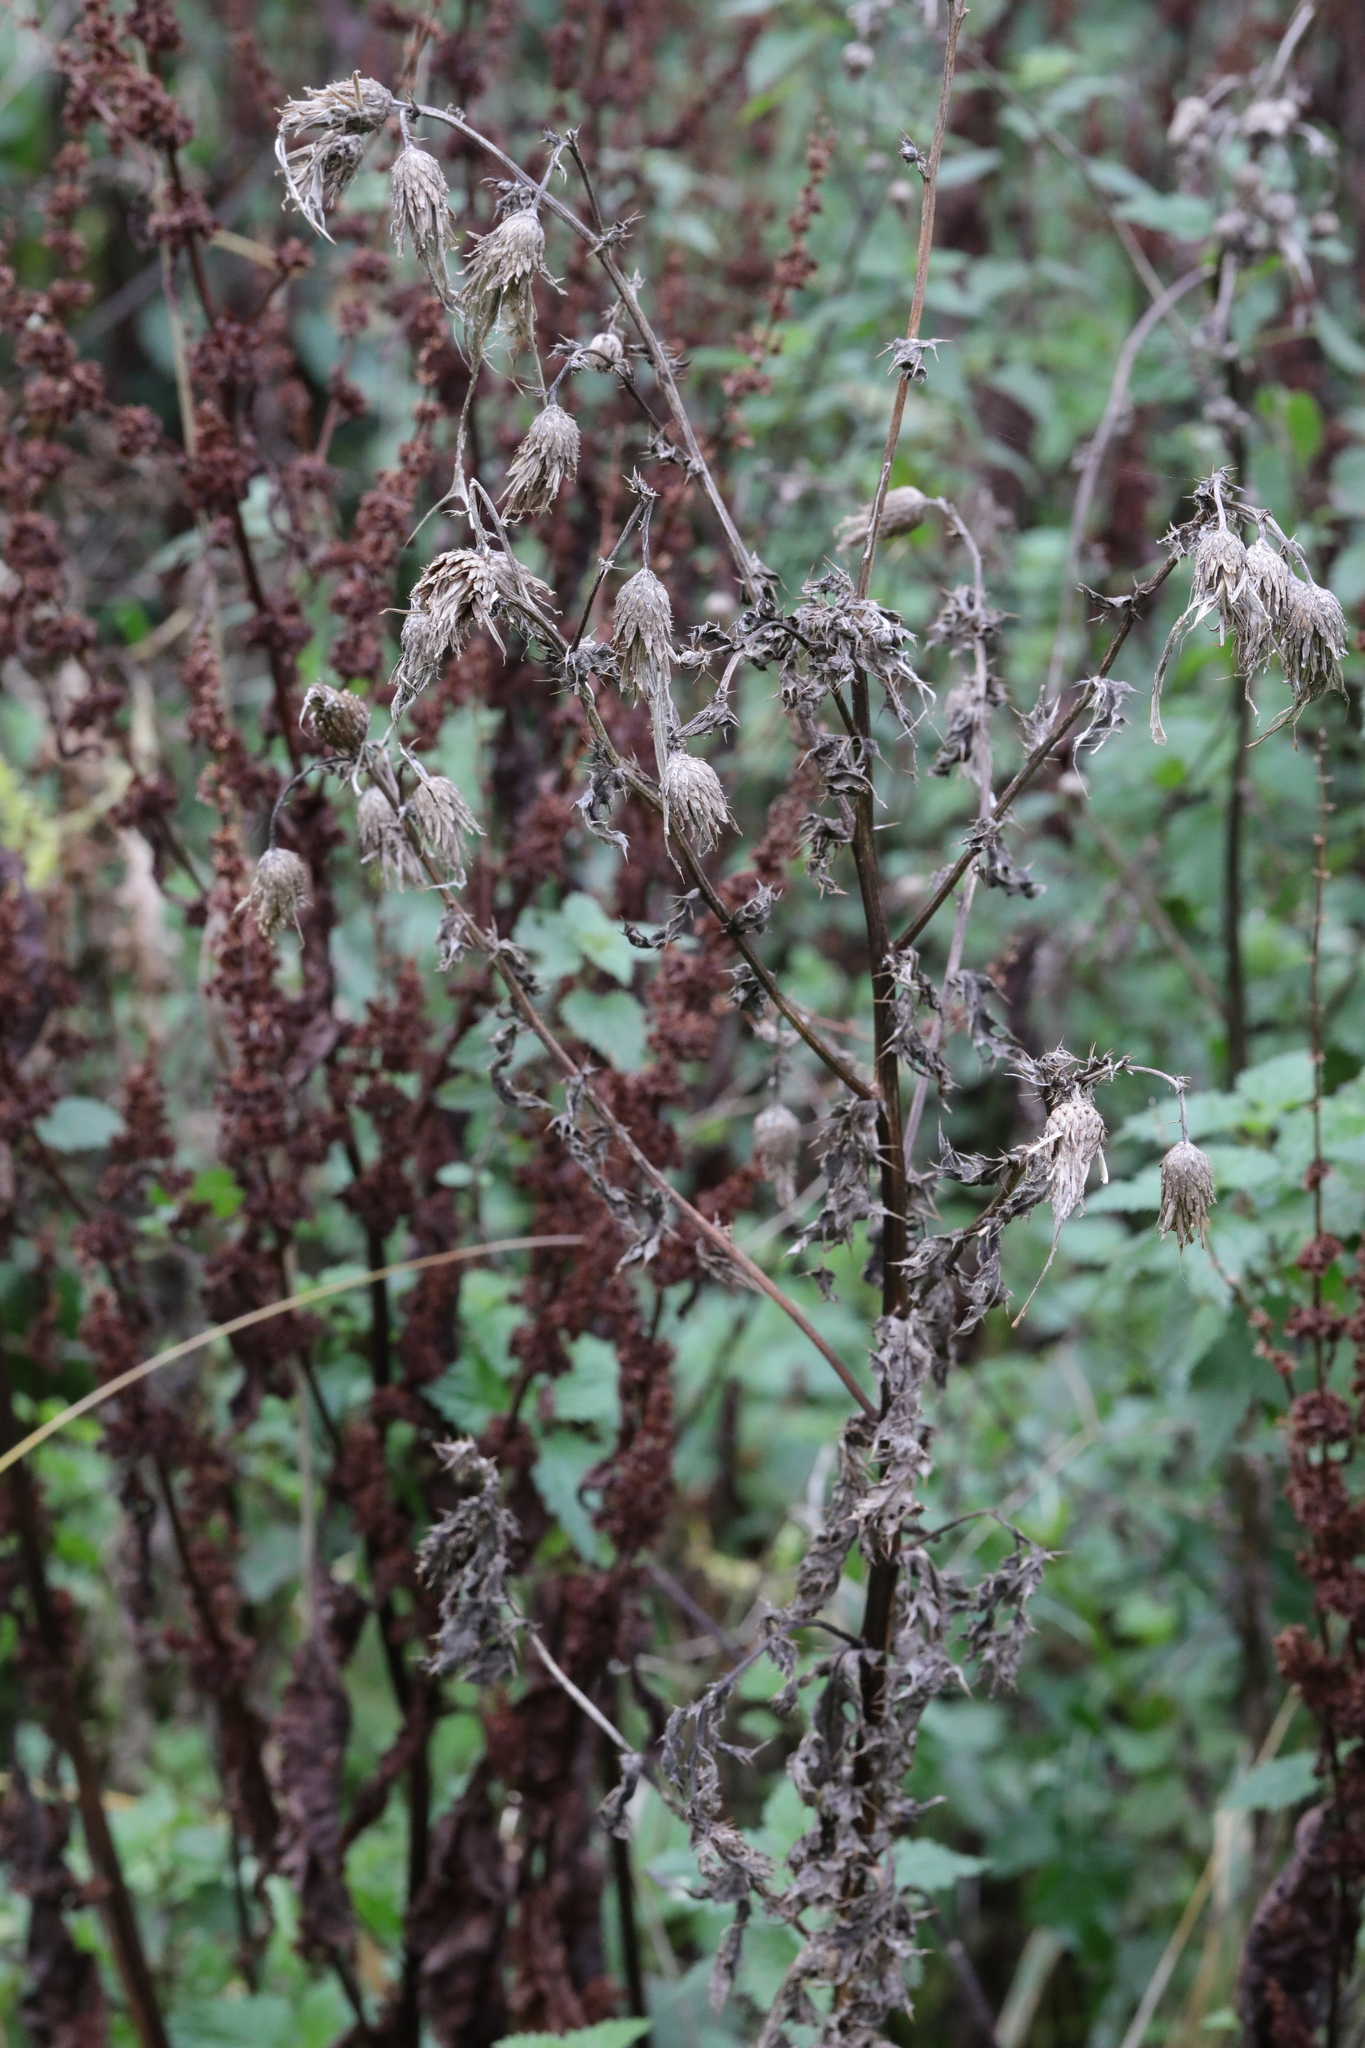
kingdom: Plantae
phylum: Tracheophyta
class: Magnoliopsida
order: Asterales
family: Asteraceae
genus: Cirsium
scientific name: Cirsium palustre
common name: Marsh thistle
